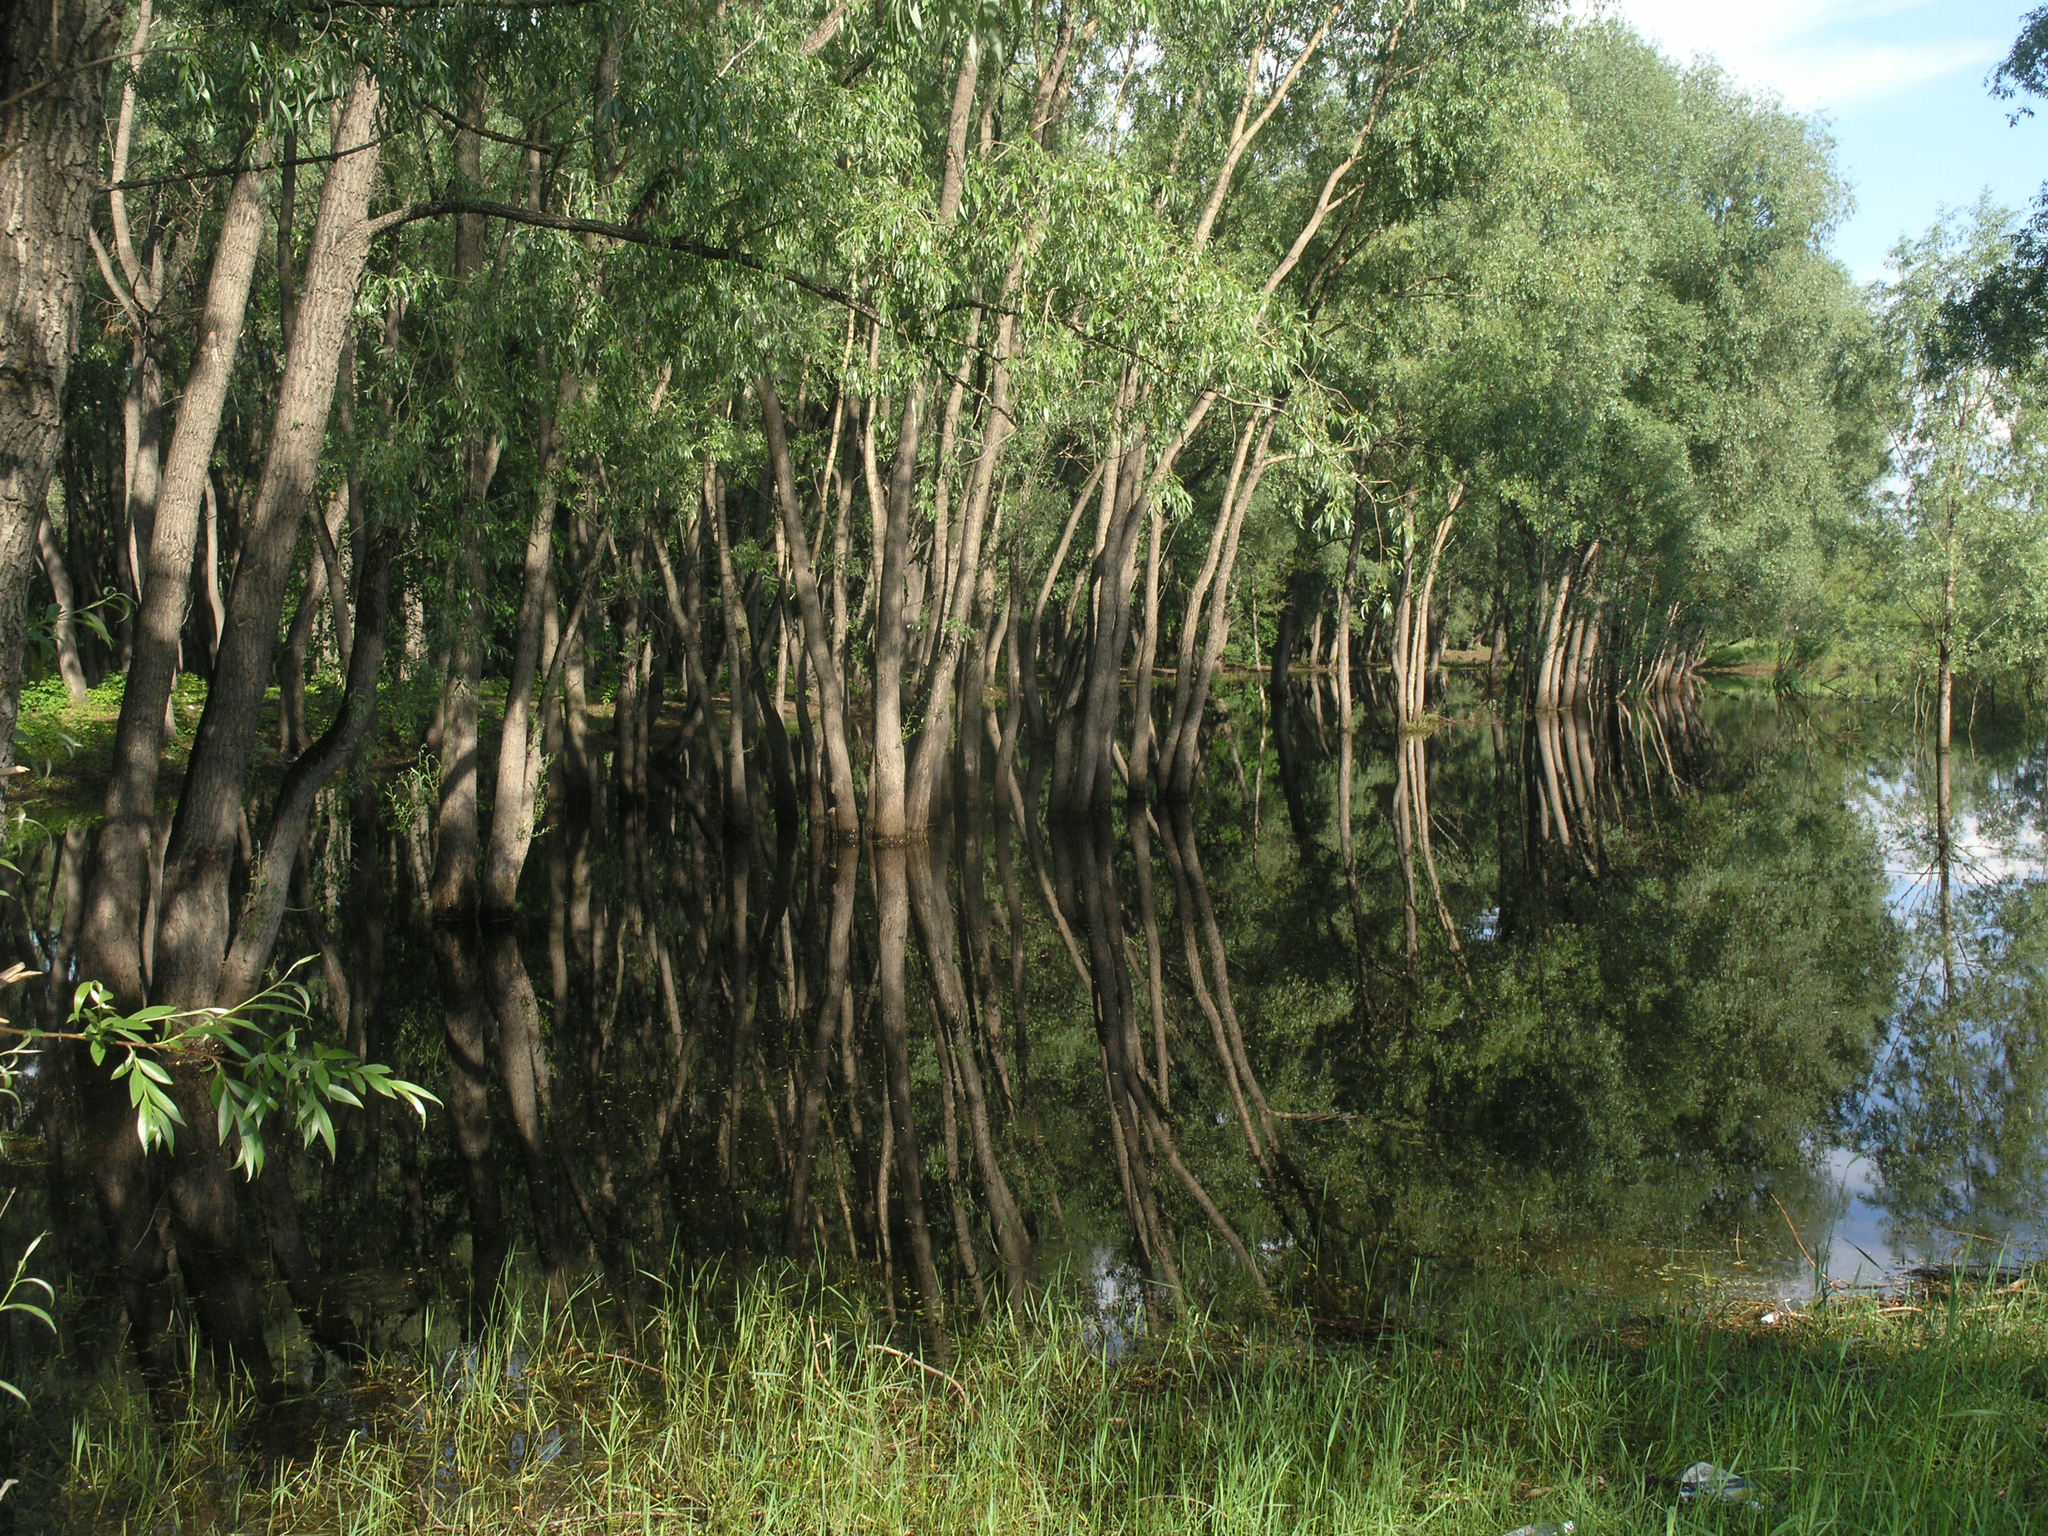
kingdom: Plantae
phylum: Tracheophyta
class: Magnoliopsida
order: Malpighiales
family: Salicaceae
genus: Salix
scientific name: Salix alba
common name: White willow
